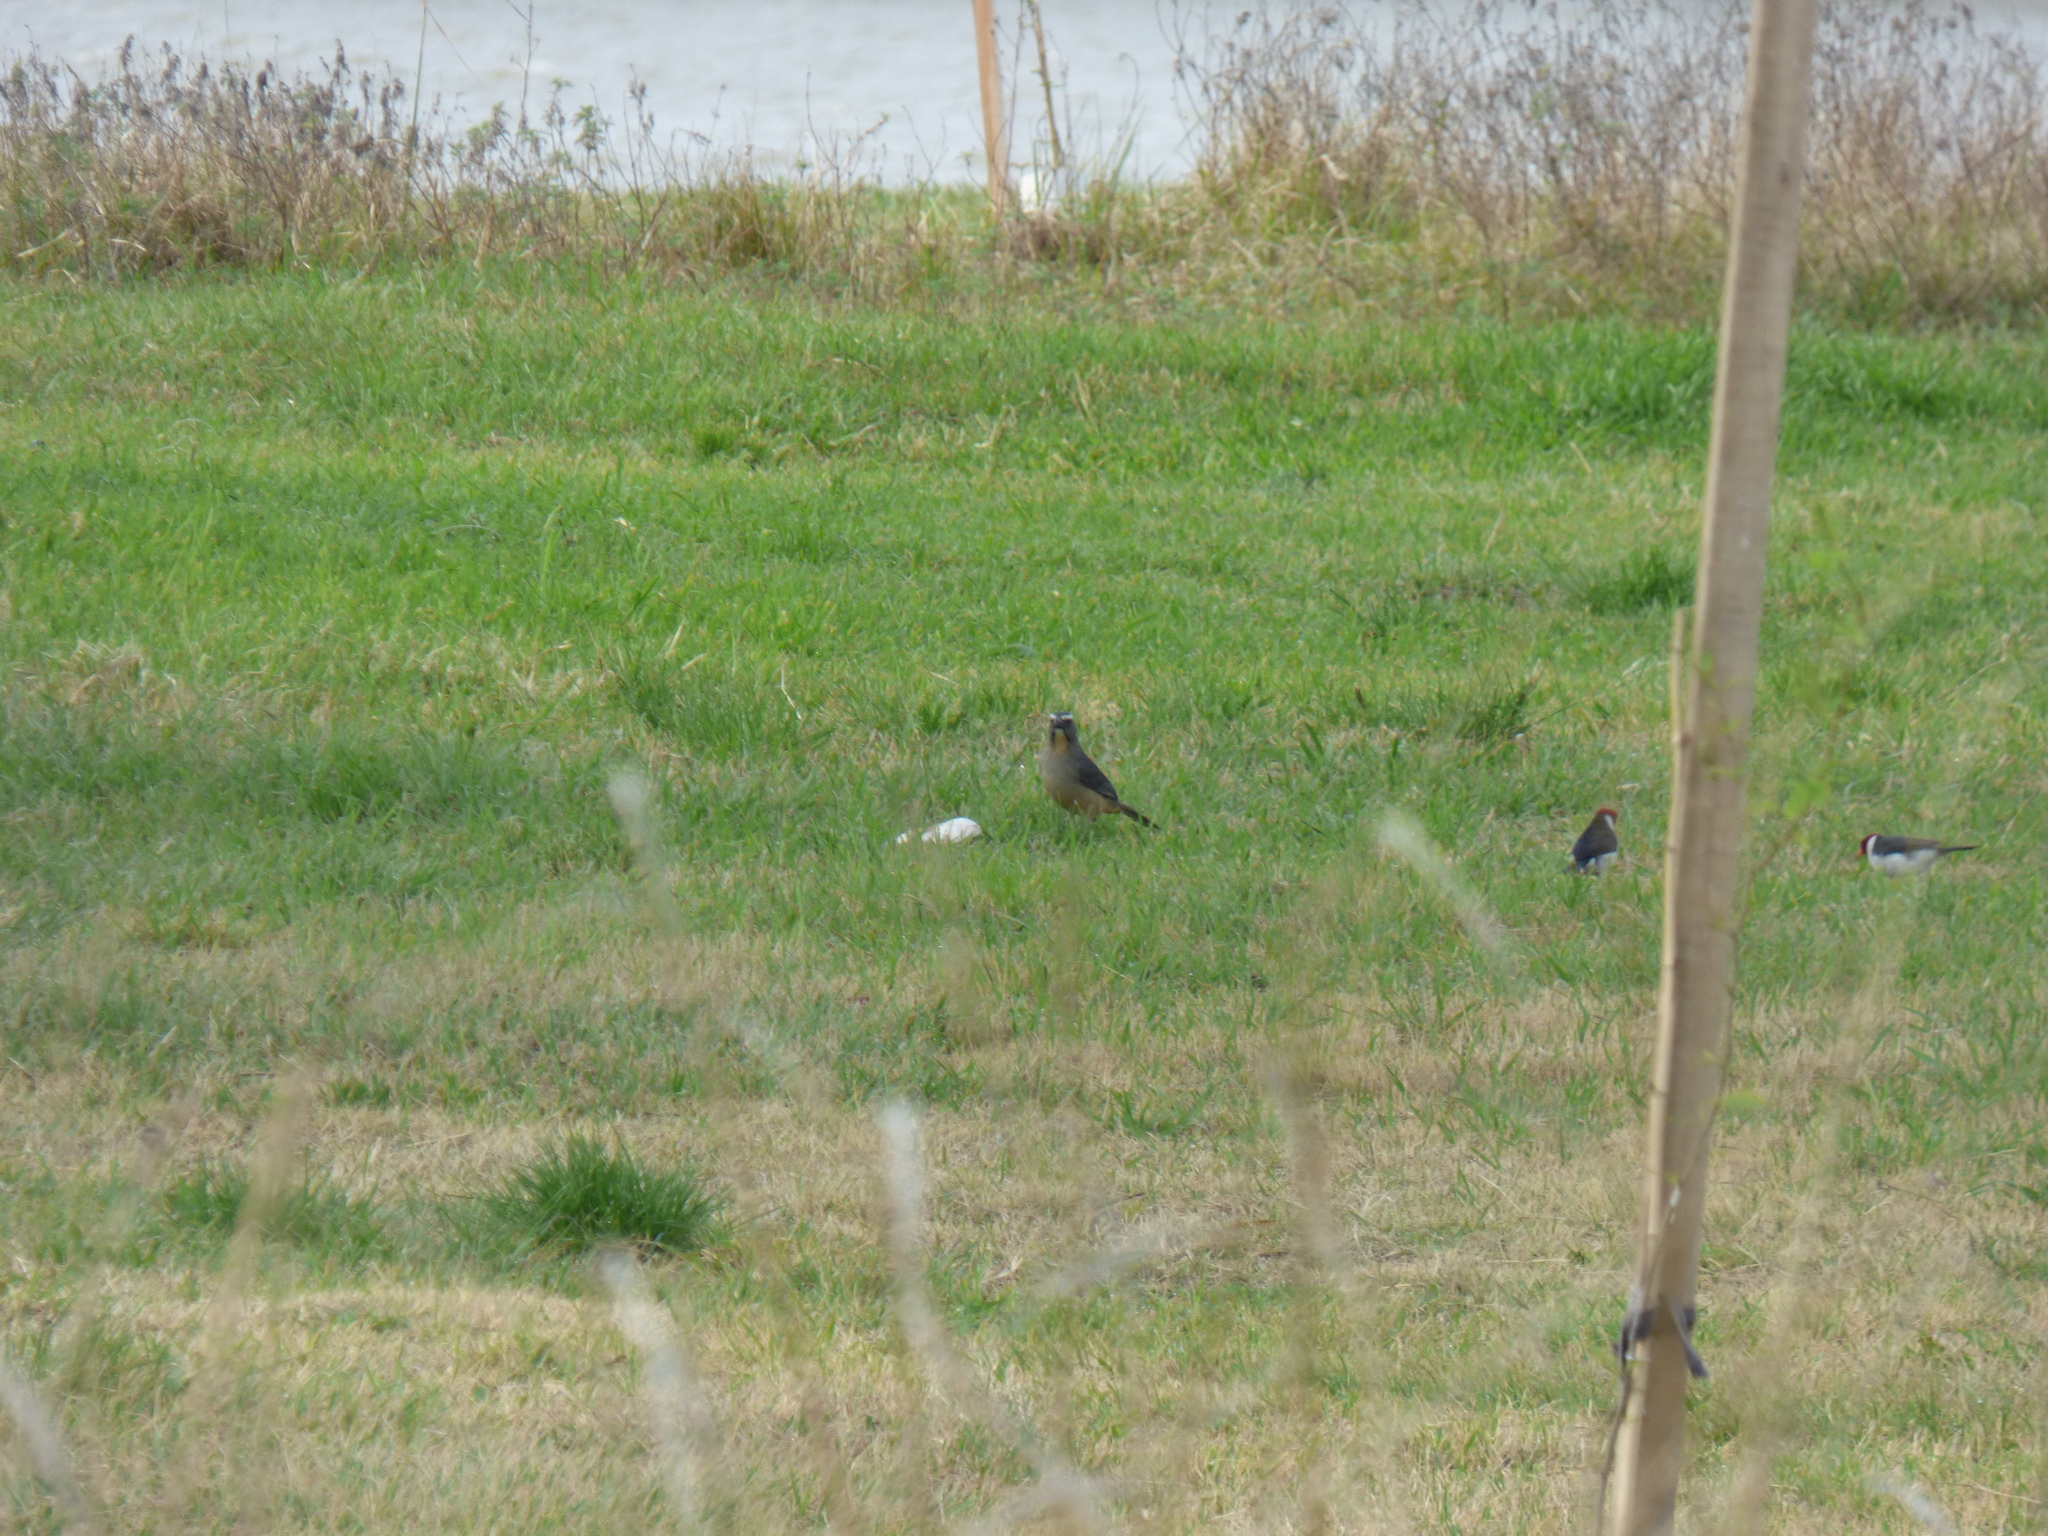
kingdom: Animalia
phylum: Chordata
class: Aves
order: Passeriformes
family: Thraupidae
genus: Saltator
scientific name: Saltator coerulescens
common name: Grayish saltator
